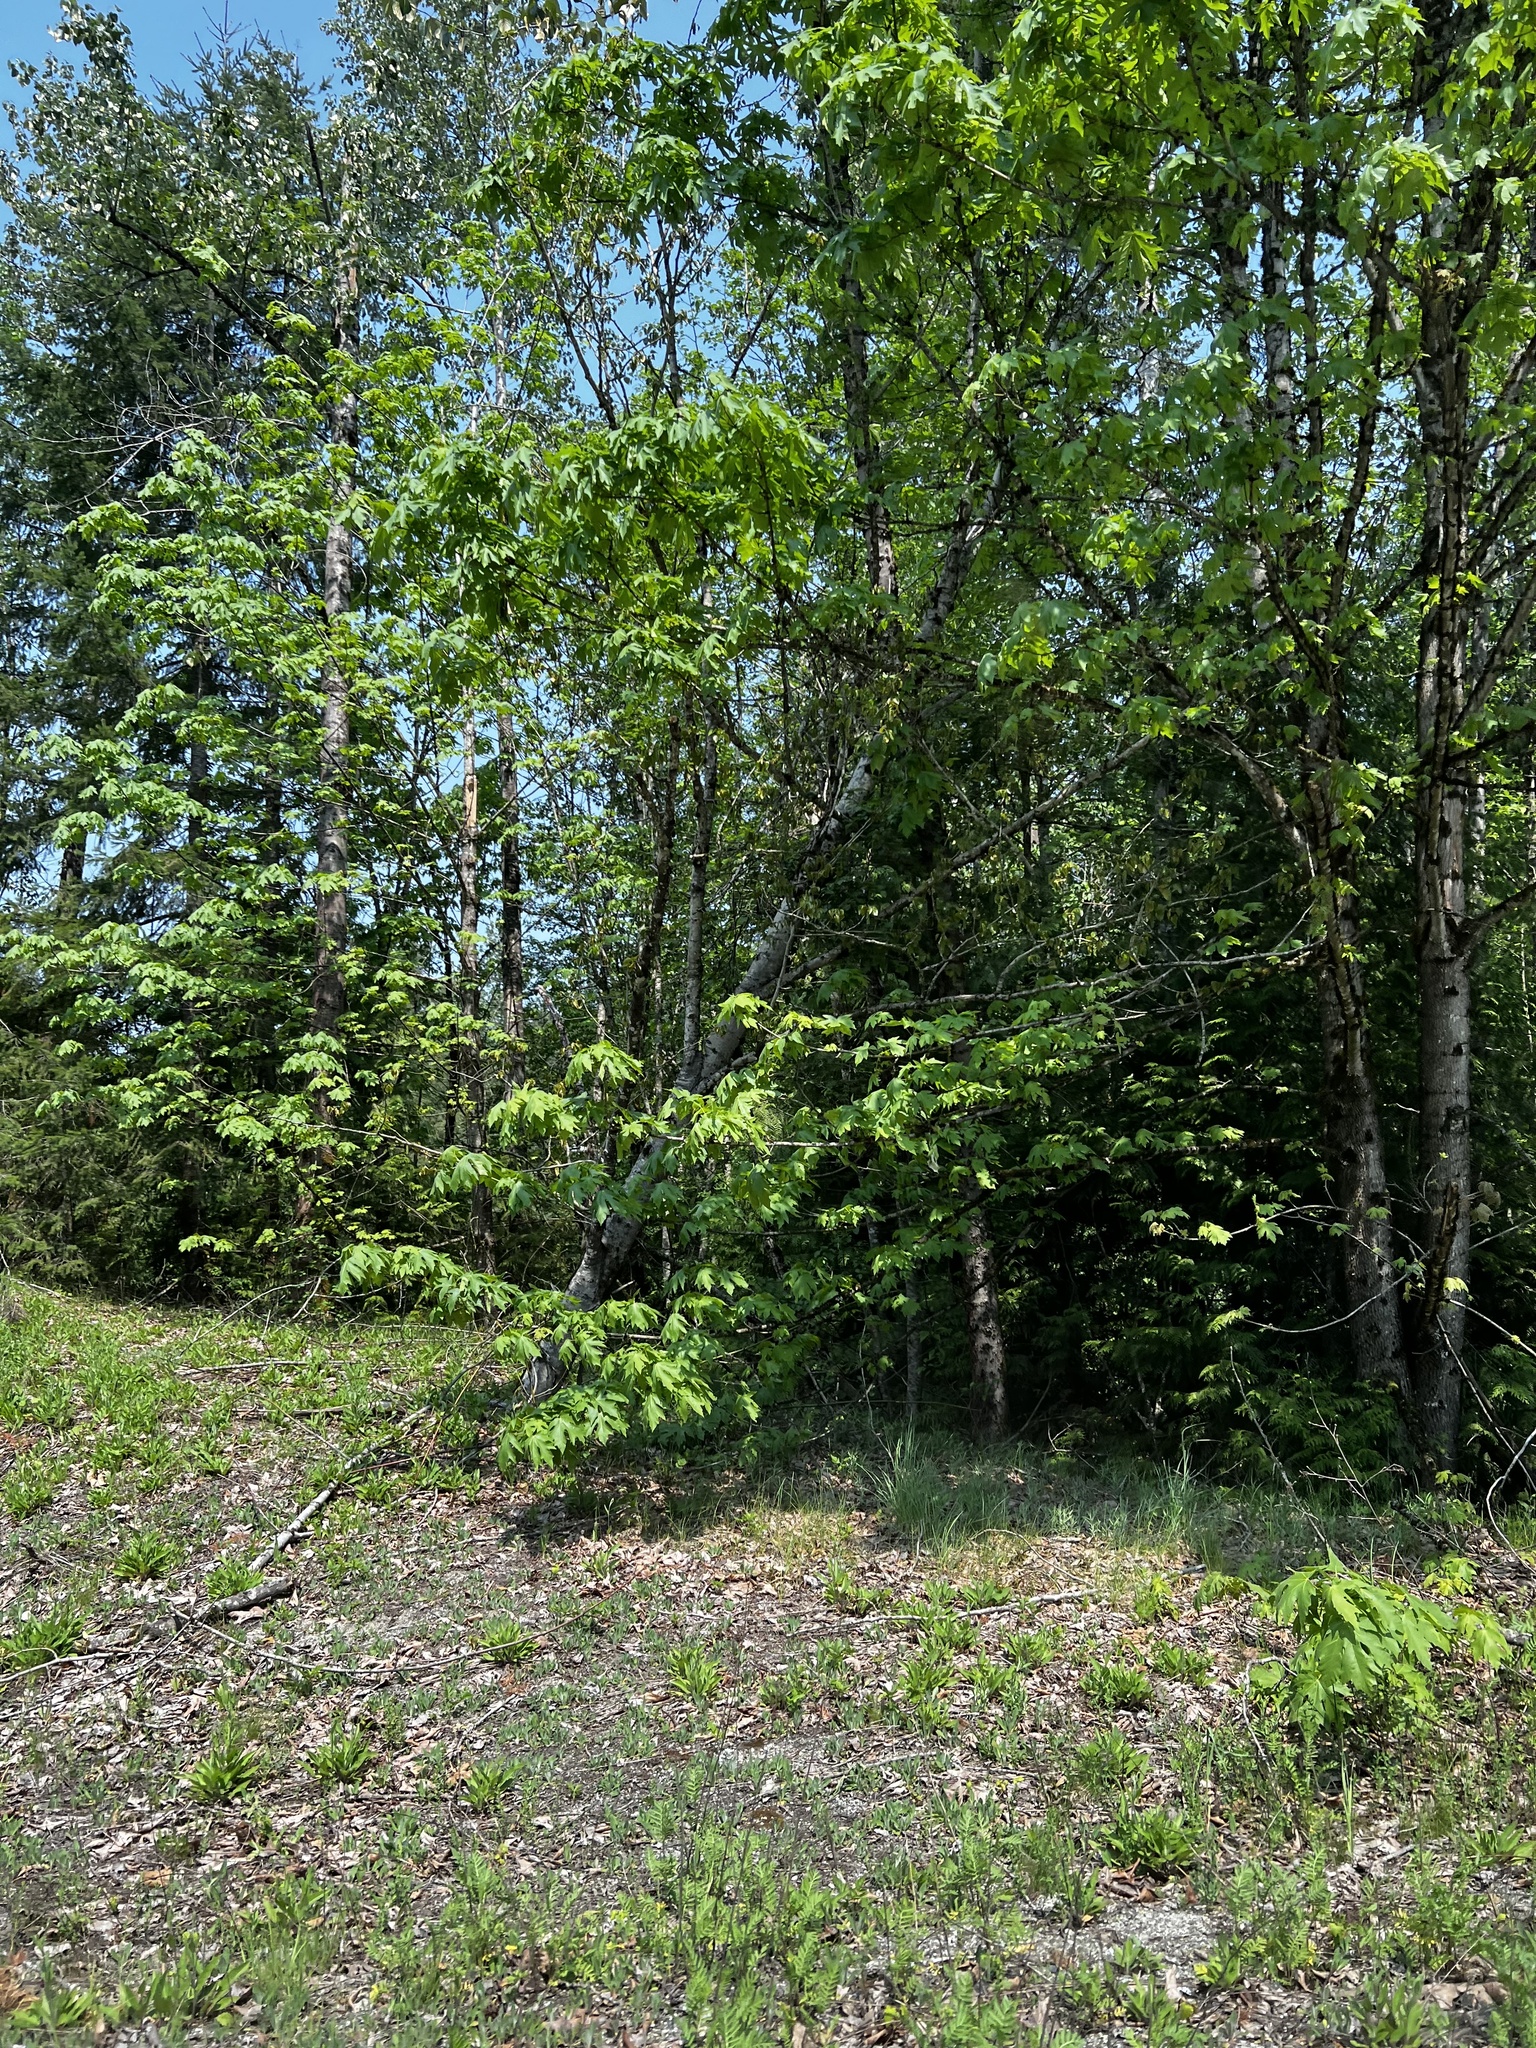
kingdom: Plantae
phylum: Tracheophyta
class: Magnoliopsida
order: Sapindales
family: Sapindaceae
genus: Acer
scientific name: Acer macrophyllum
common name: Oregon maple
